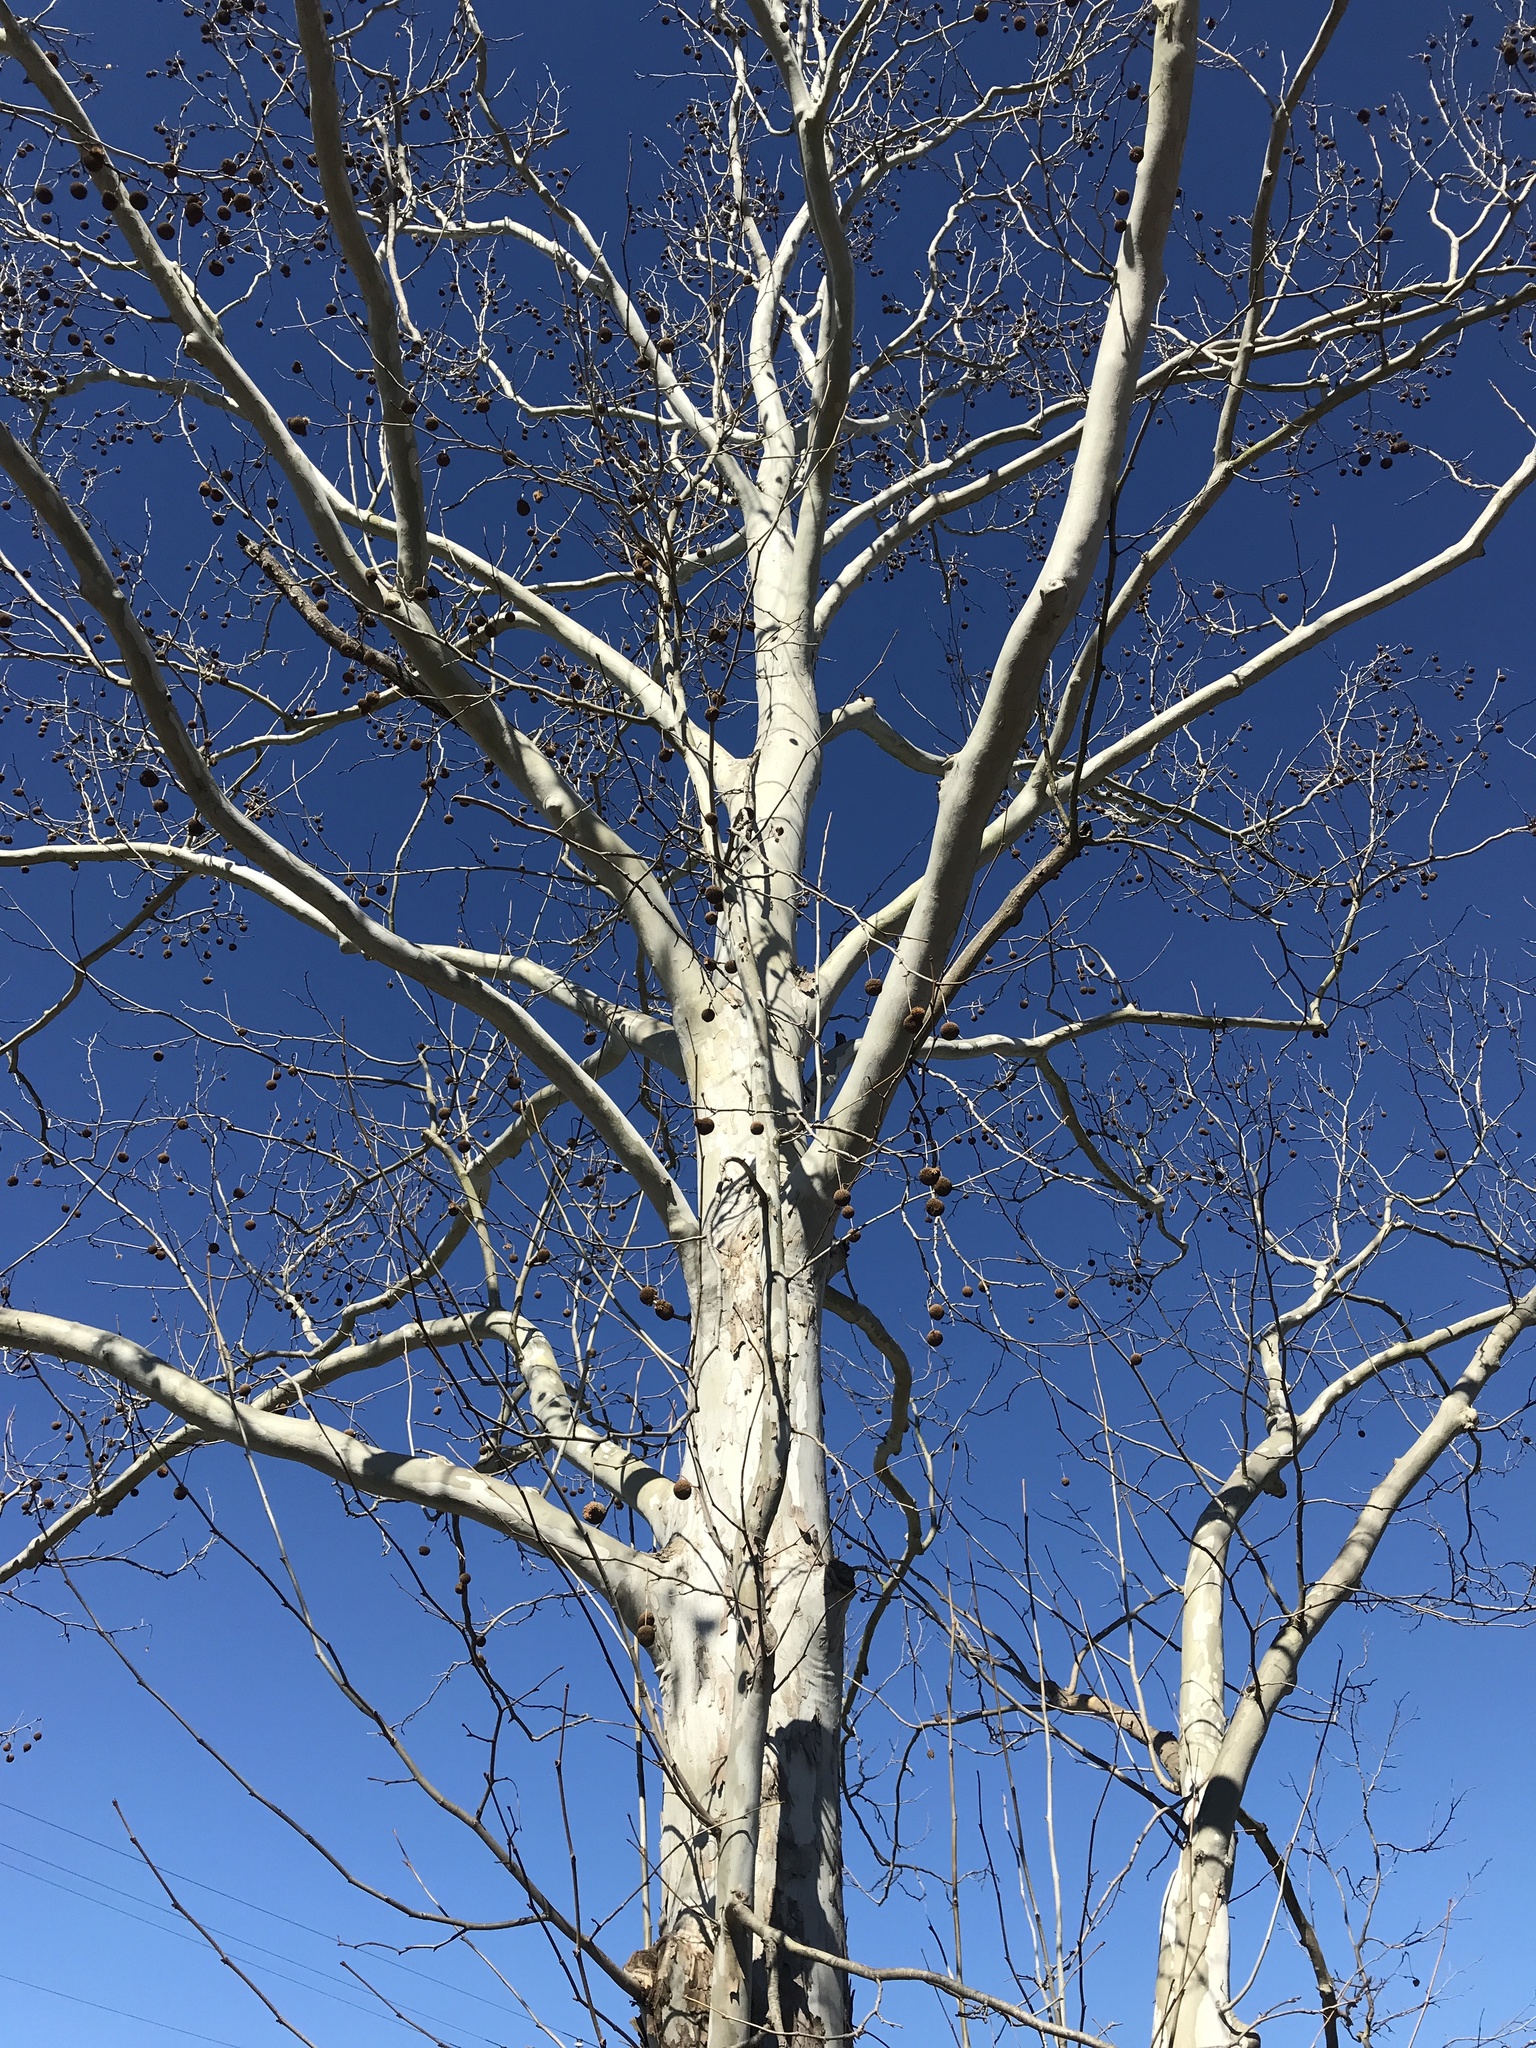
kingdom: Plantae
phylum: Tracheophyta
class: Magnoliopsida
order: Proteales
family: Platanaceae
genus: Platanus
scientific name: Platanus occidentalis
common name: American sycamore
